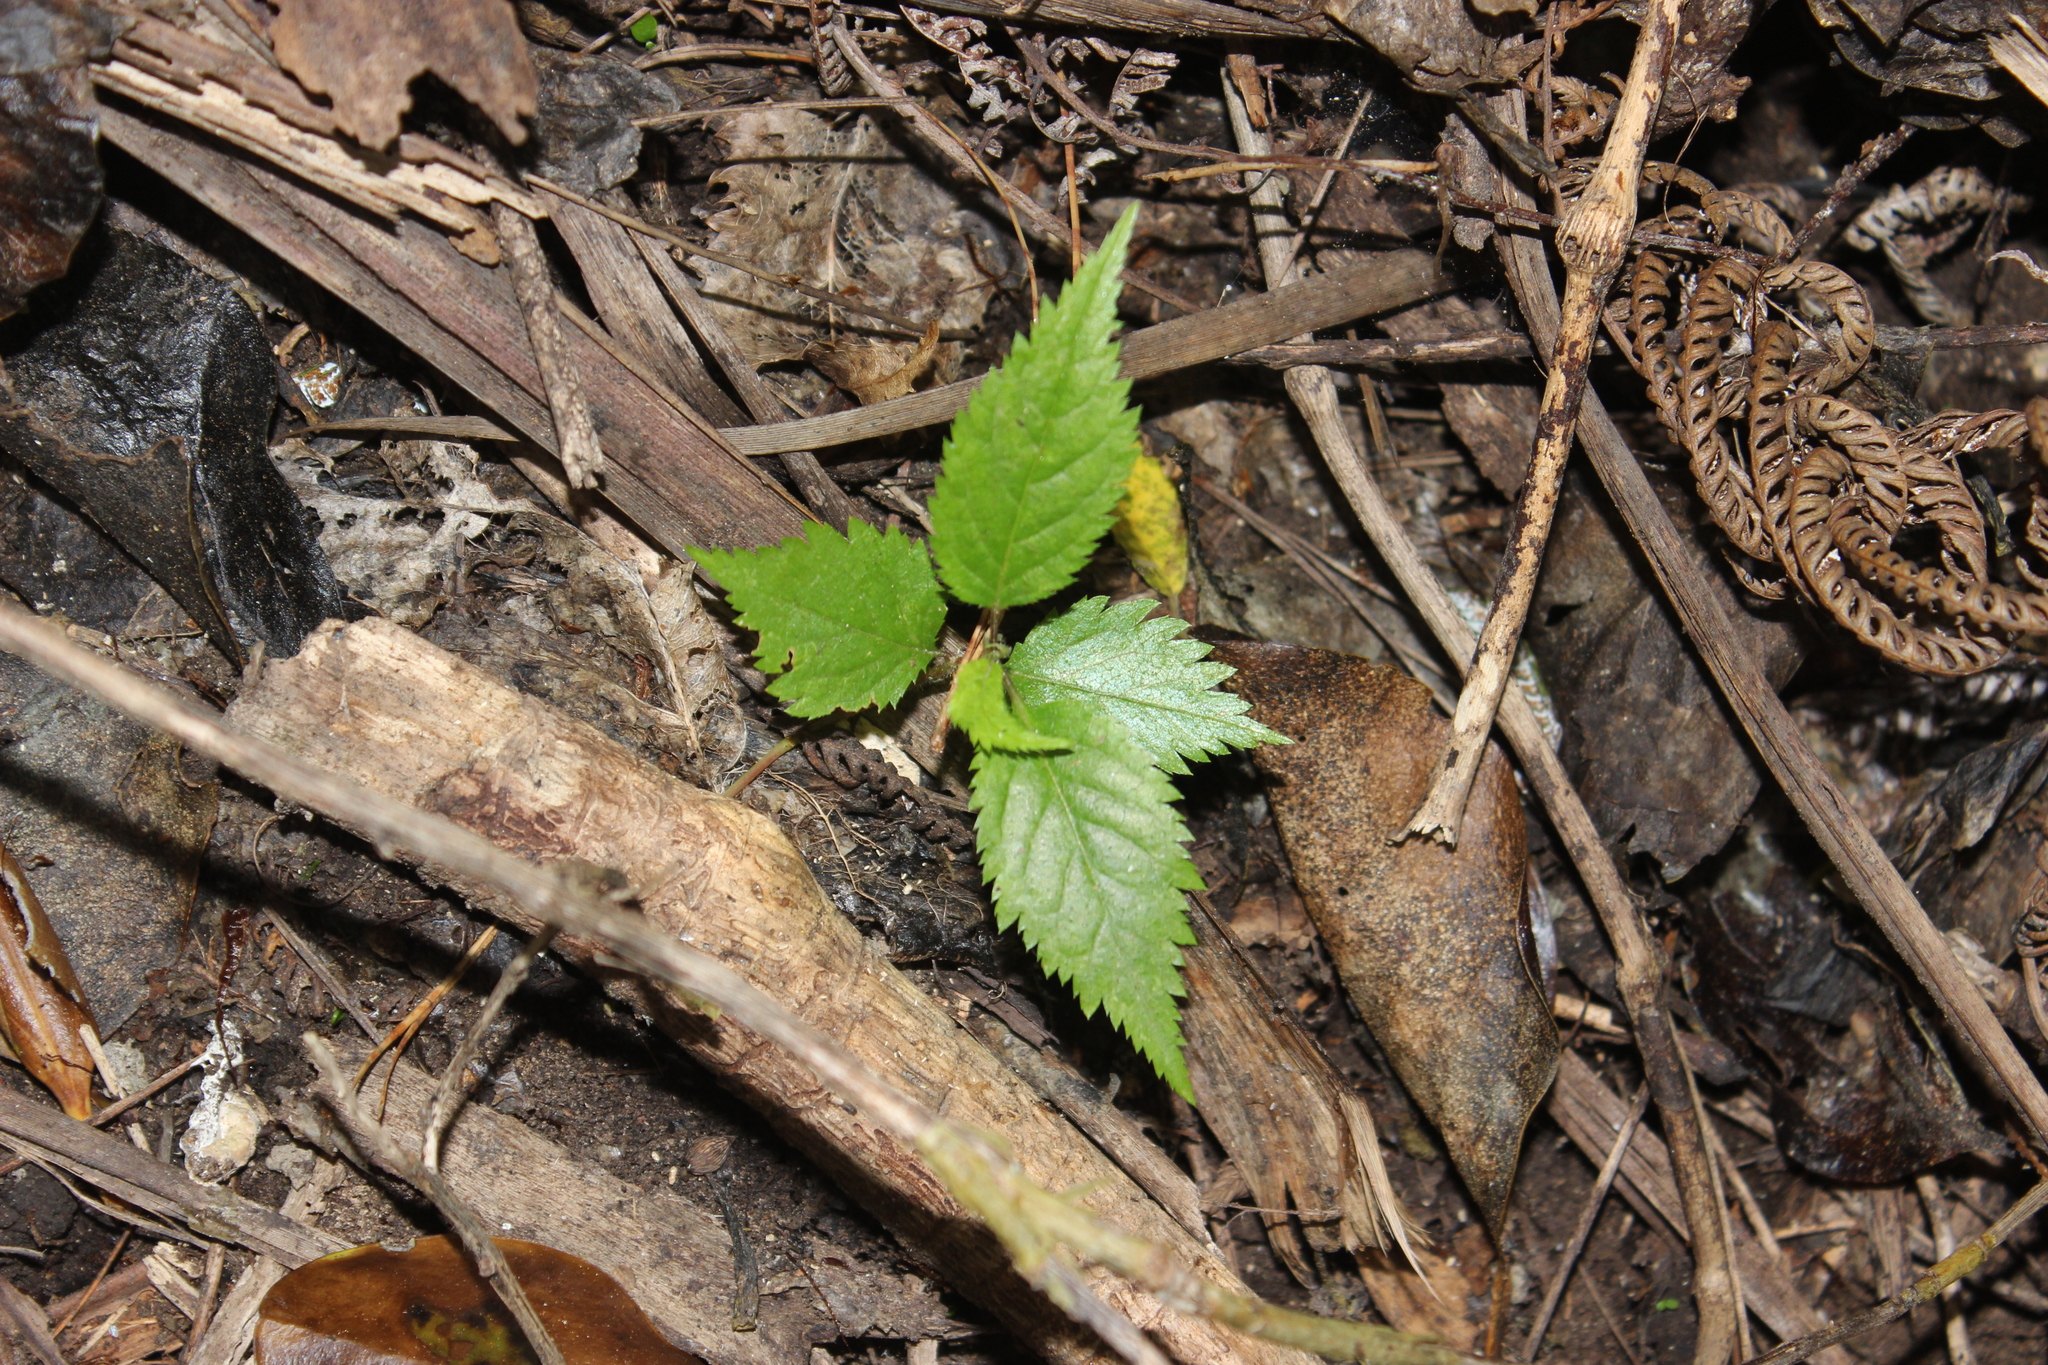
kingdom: Plantae
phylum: Tracheophyta
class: Magnoliopsida
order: Rosales
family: Rosaceae
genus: Prunus
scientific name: Prunus serrulata
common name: Japanese cherry
